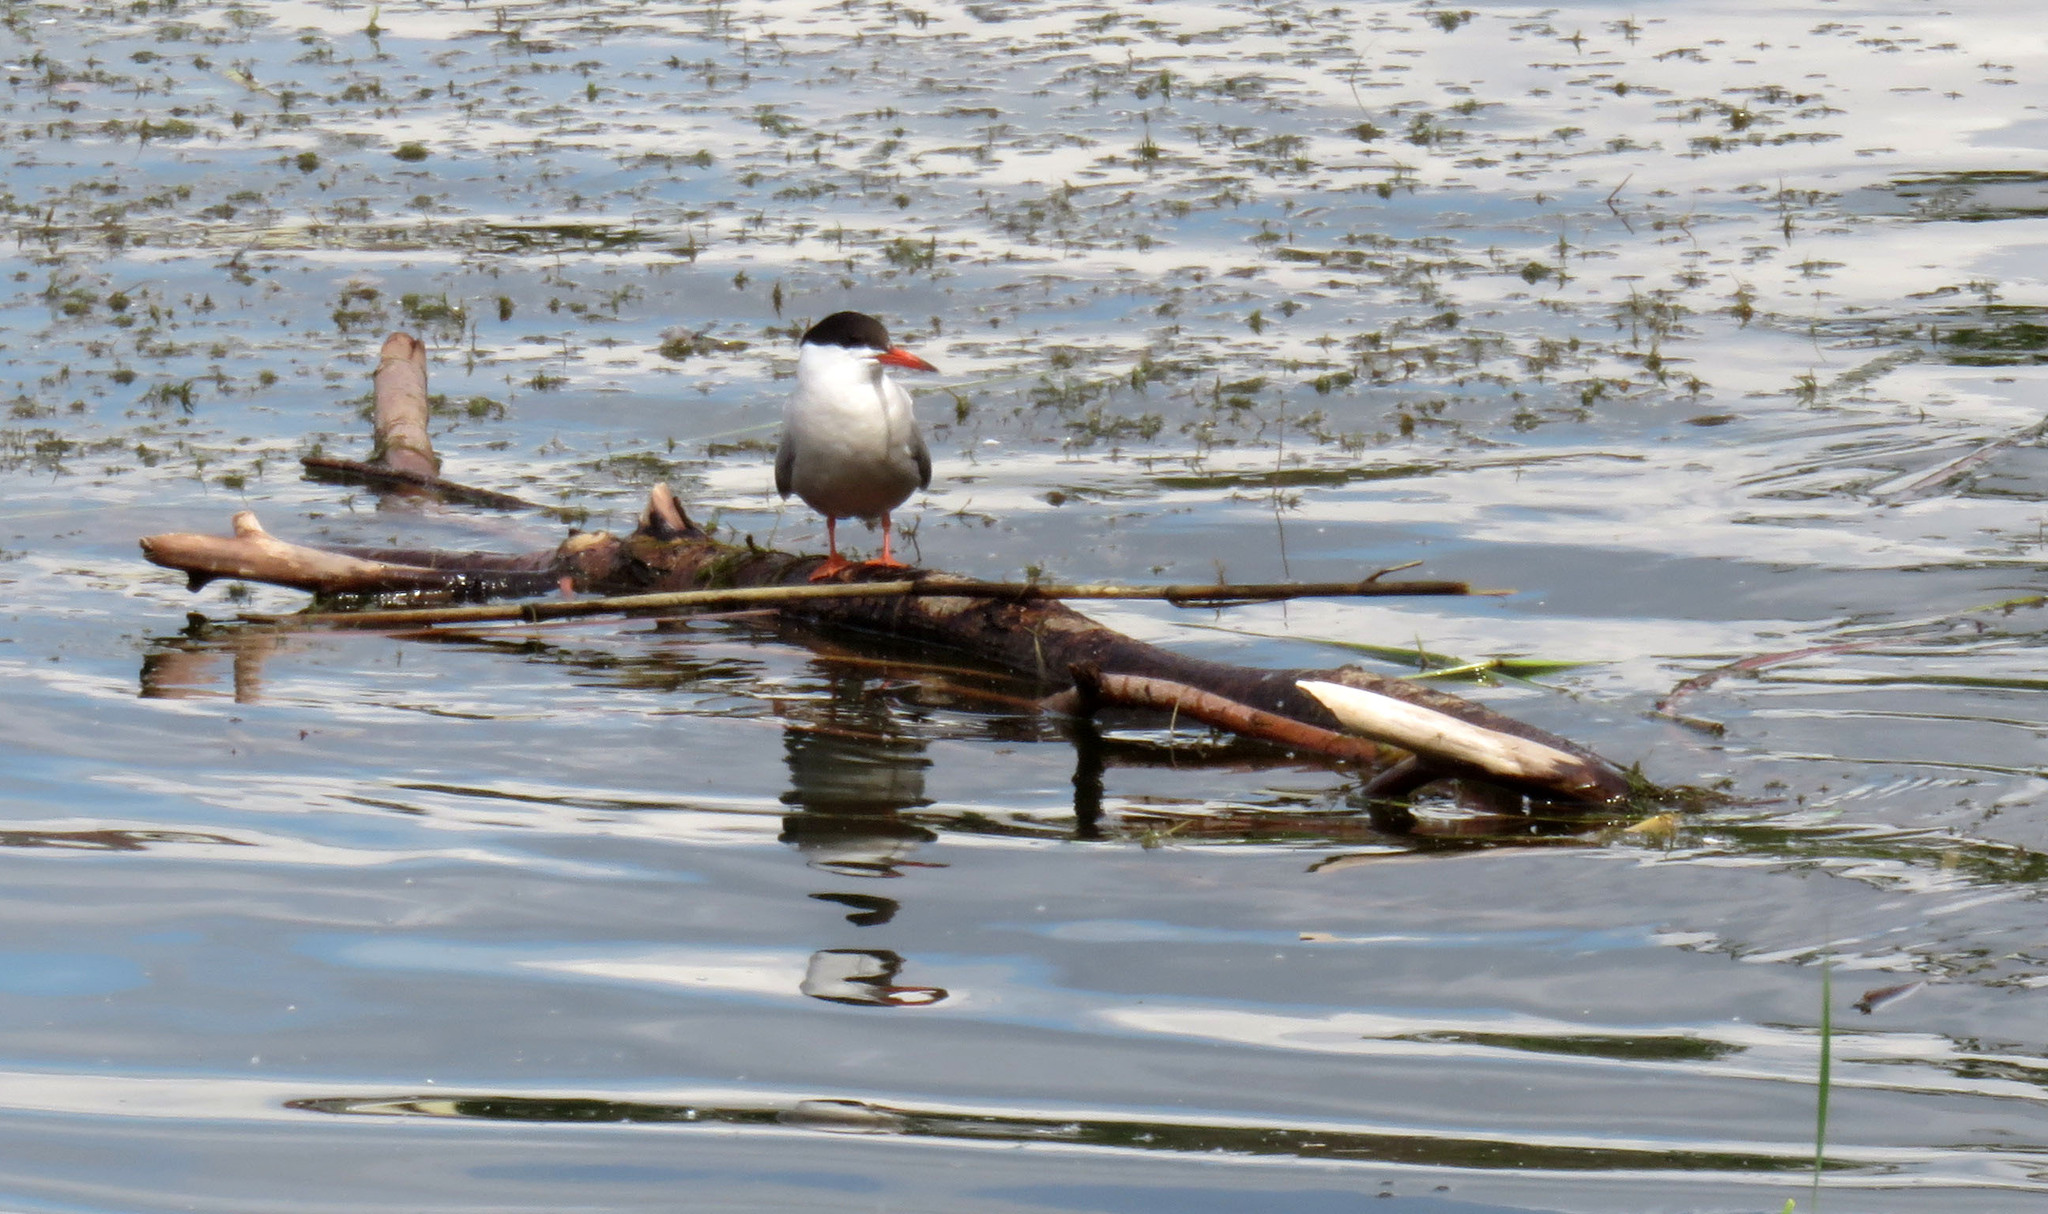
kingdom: Animalia
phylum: Chordata
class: Aves
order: Charadriiformes
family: Laridae
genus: Sterna
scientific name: Sterna hirundo
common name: Common tern
